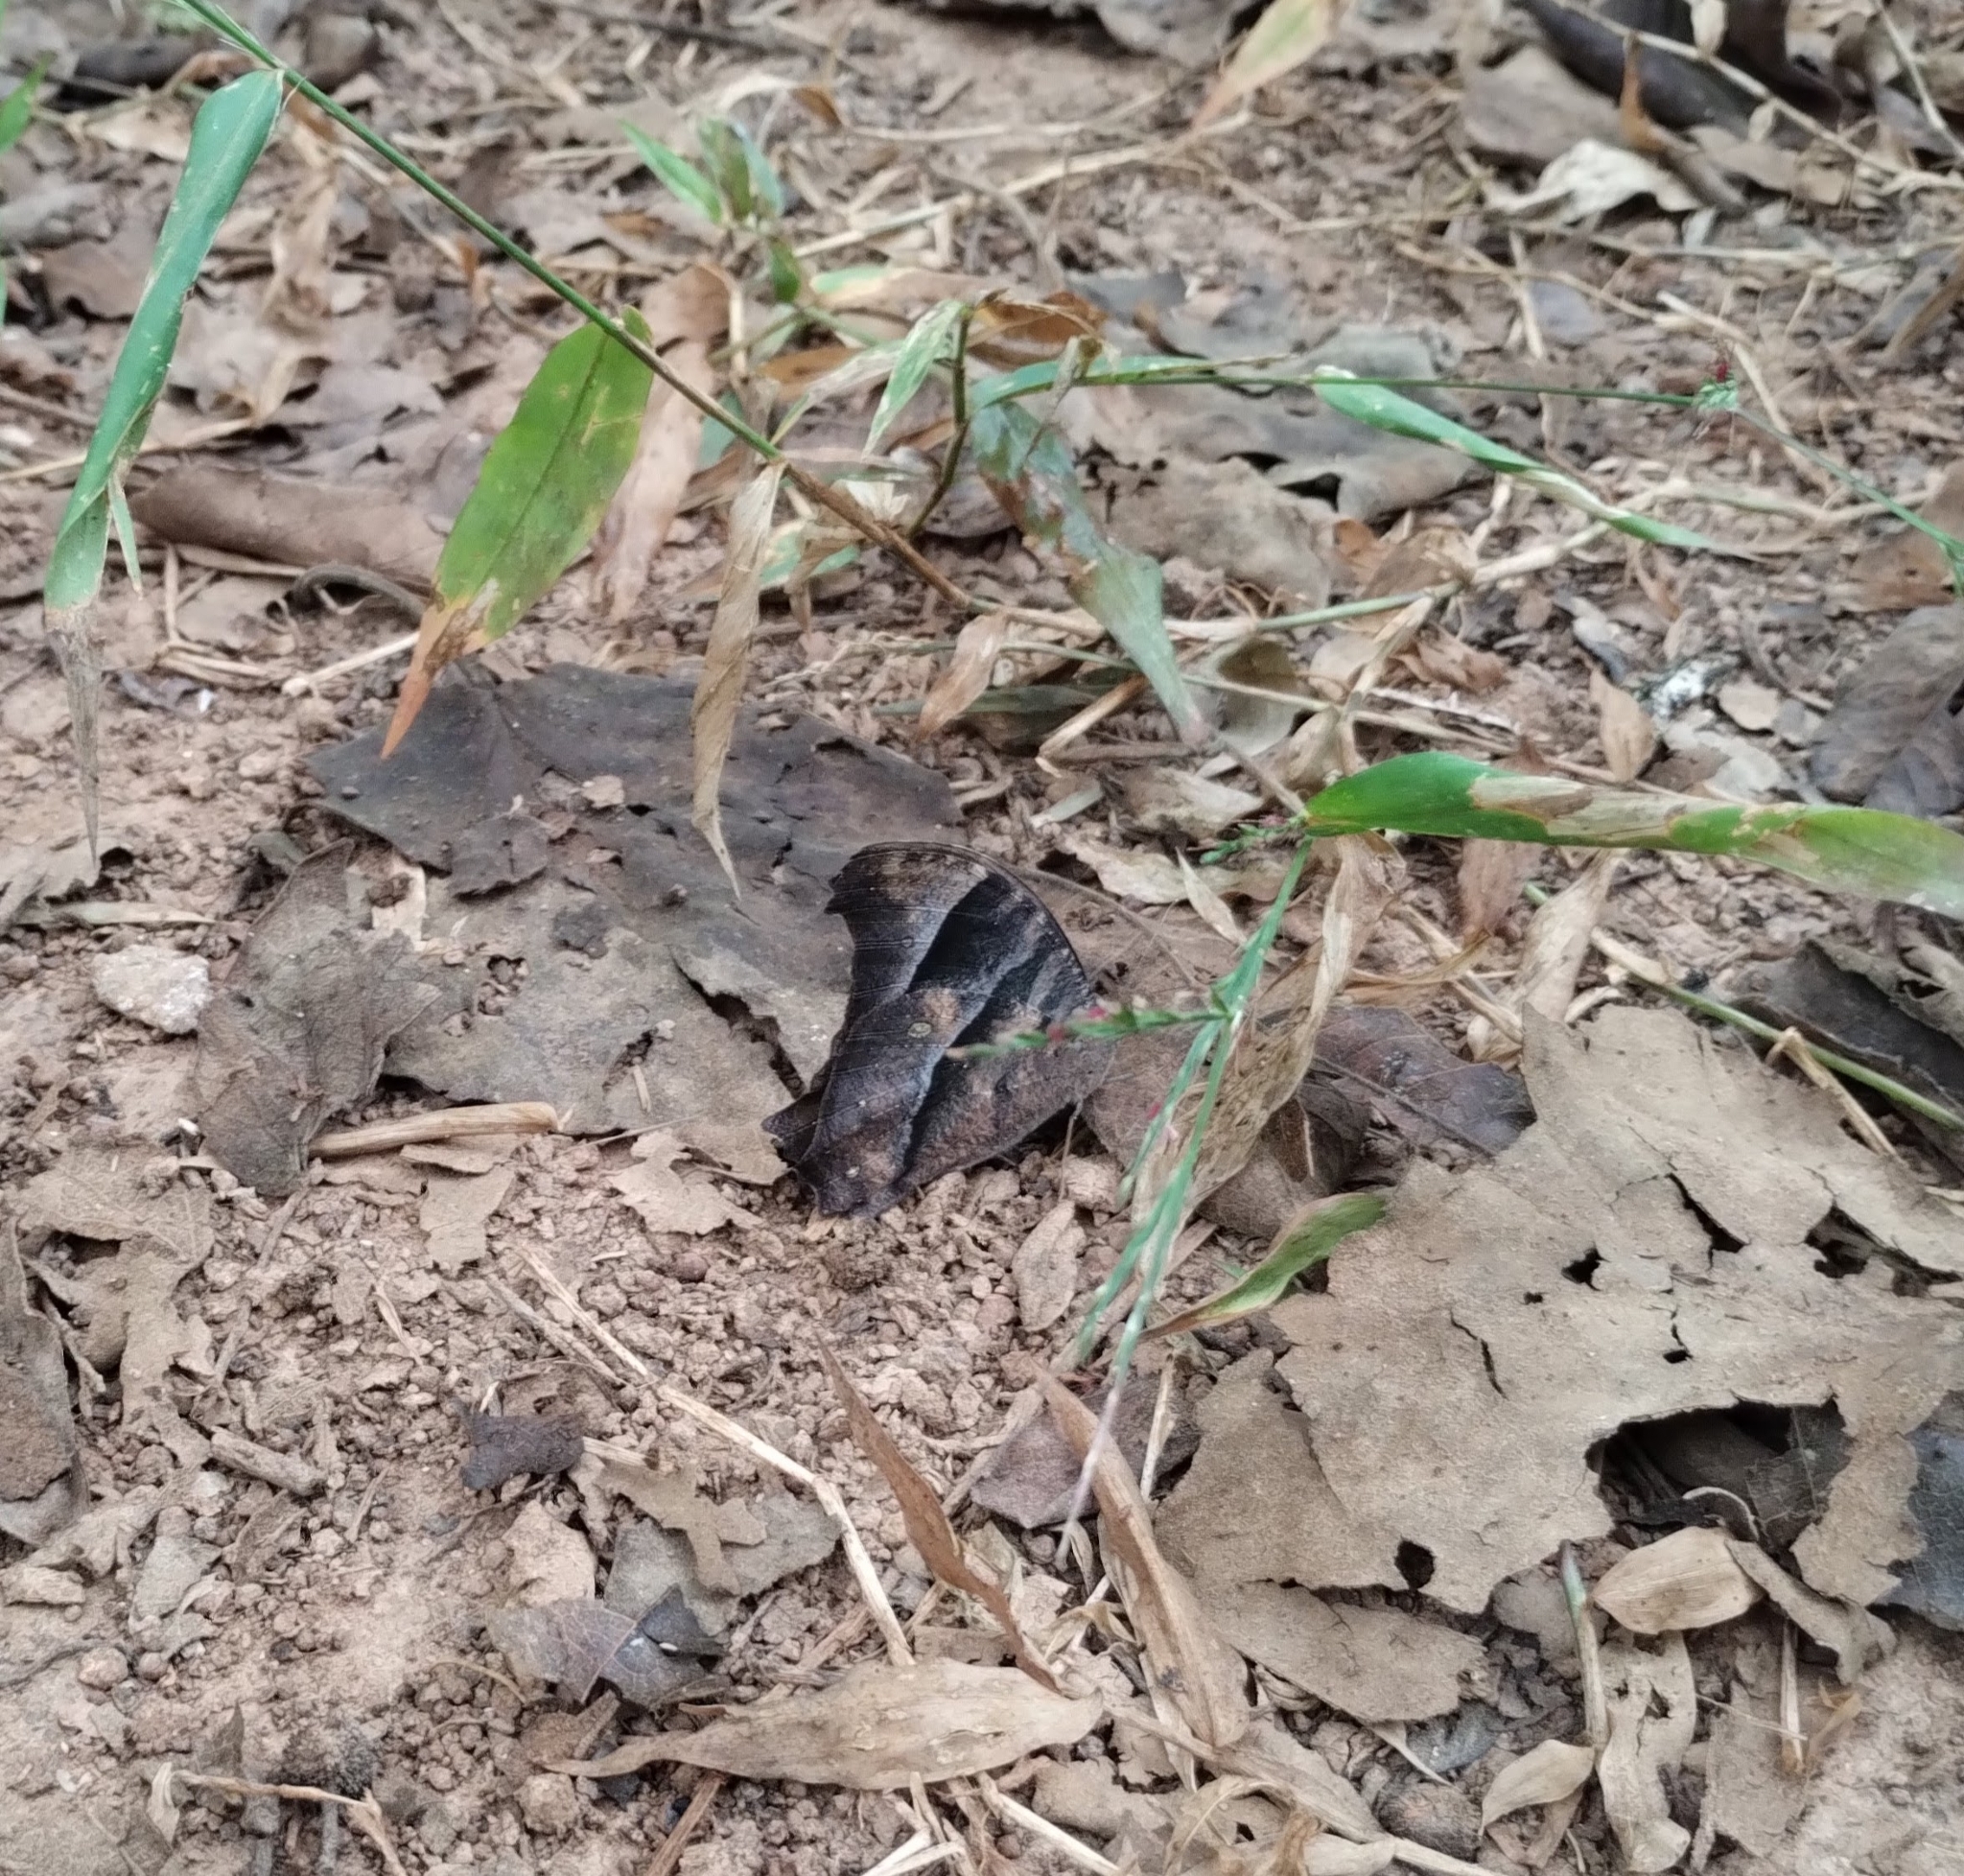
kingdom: Animalia
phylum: Arthropoda
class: Insecta
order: Lepidoptera
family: Nymphalidae
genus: Melanitis
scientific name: Melanitis leda
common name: Twilight brown
